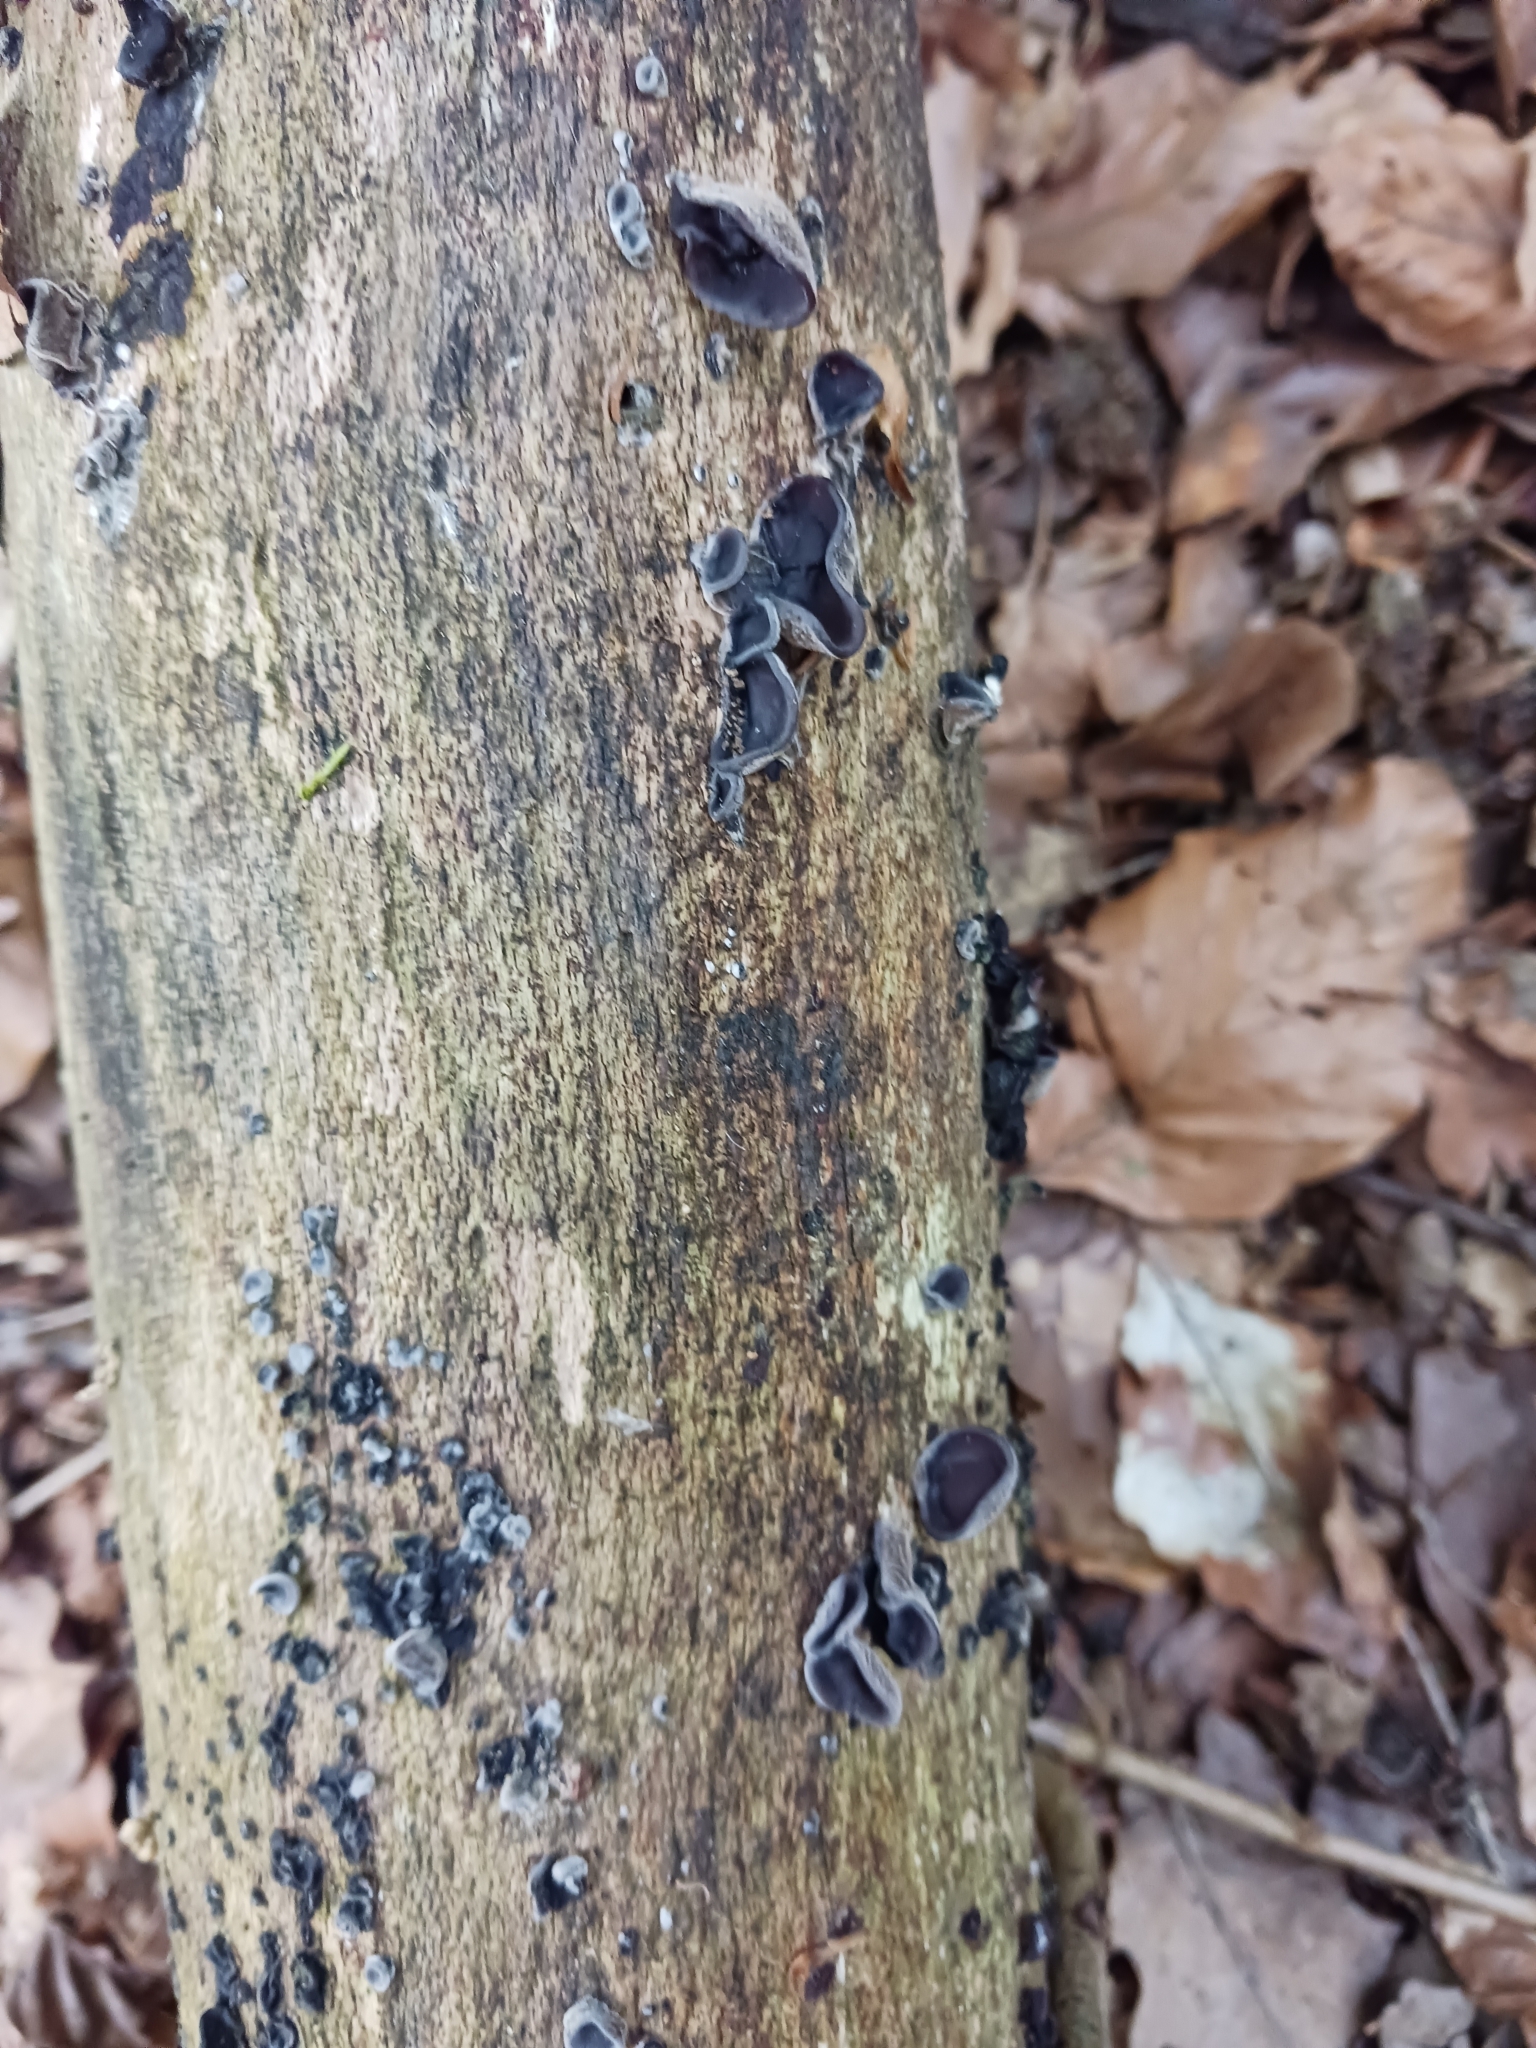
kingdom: Fungi
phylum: Basidiomycota
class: Agaricomycetes
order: Auriculariales
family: Auriculariaceae
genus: Auricularia
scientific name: Auricularia auricula-judae
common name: Jelly ear
